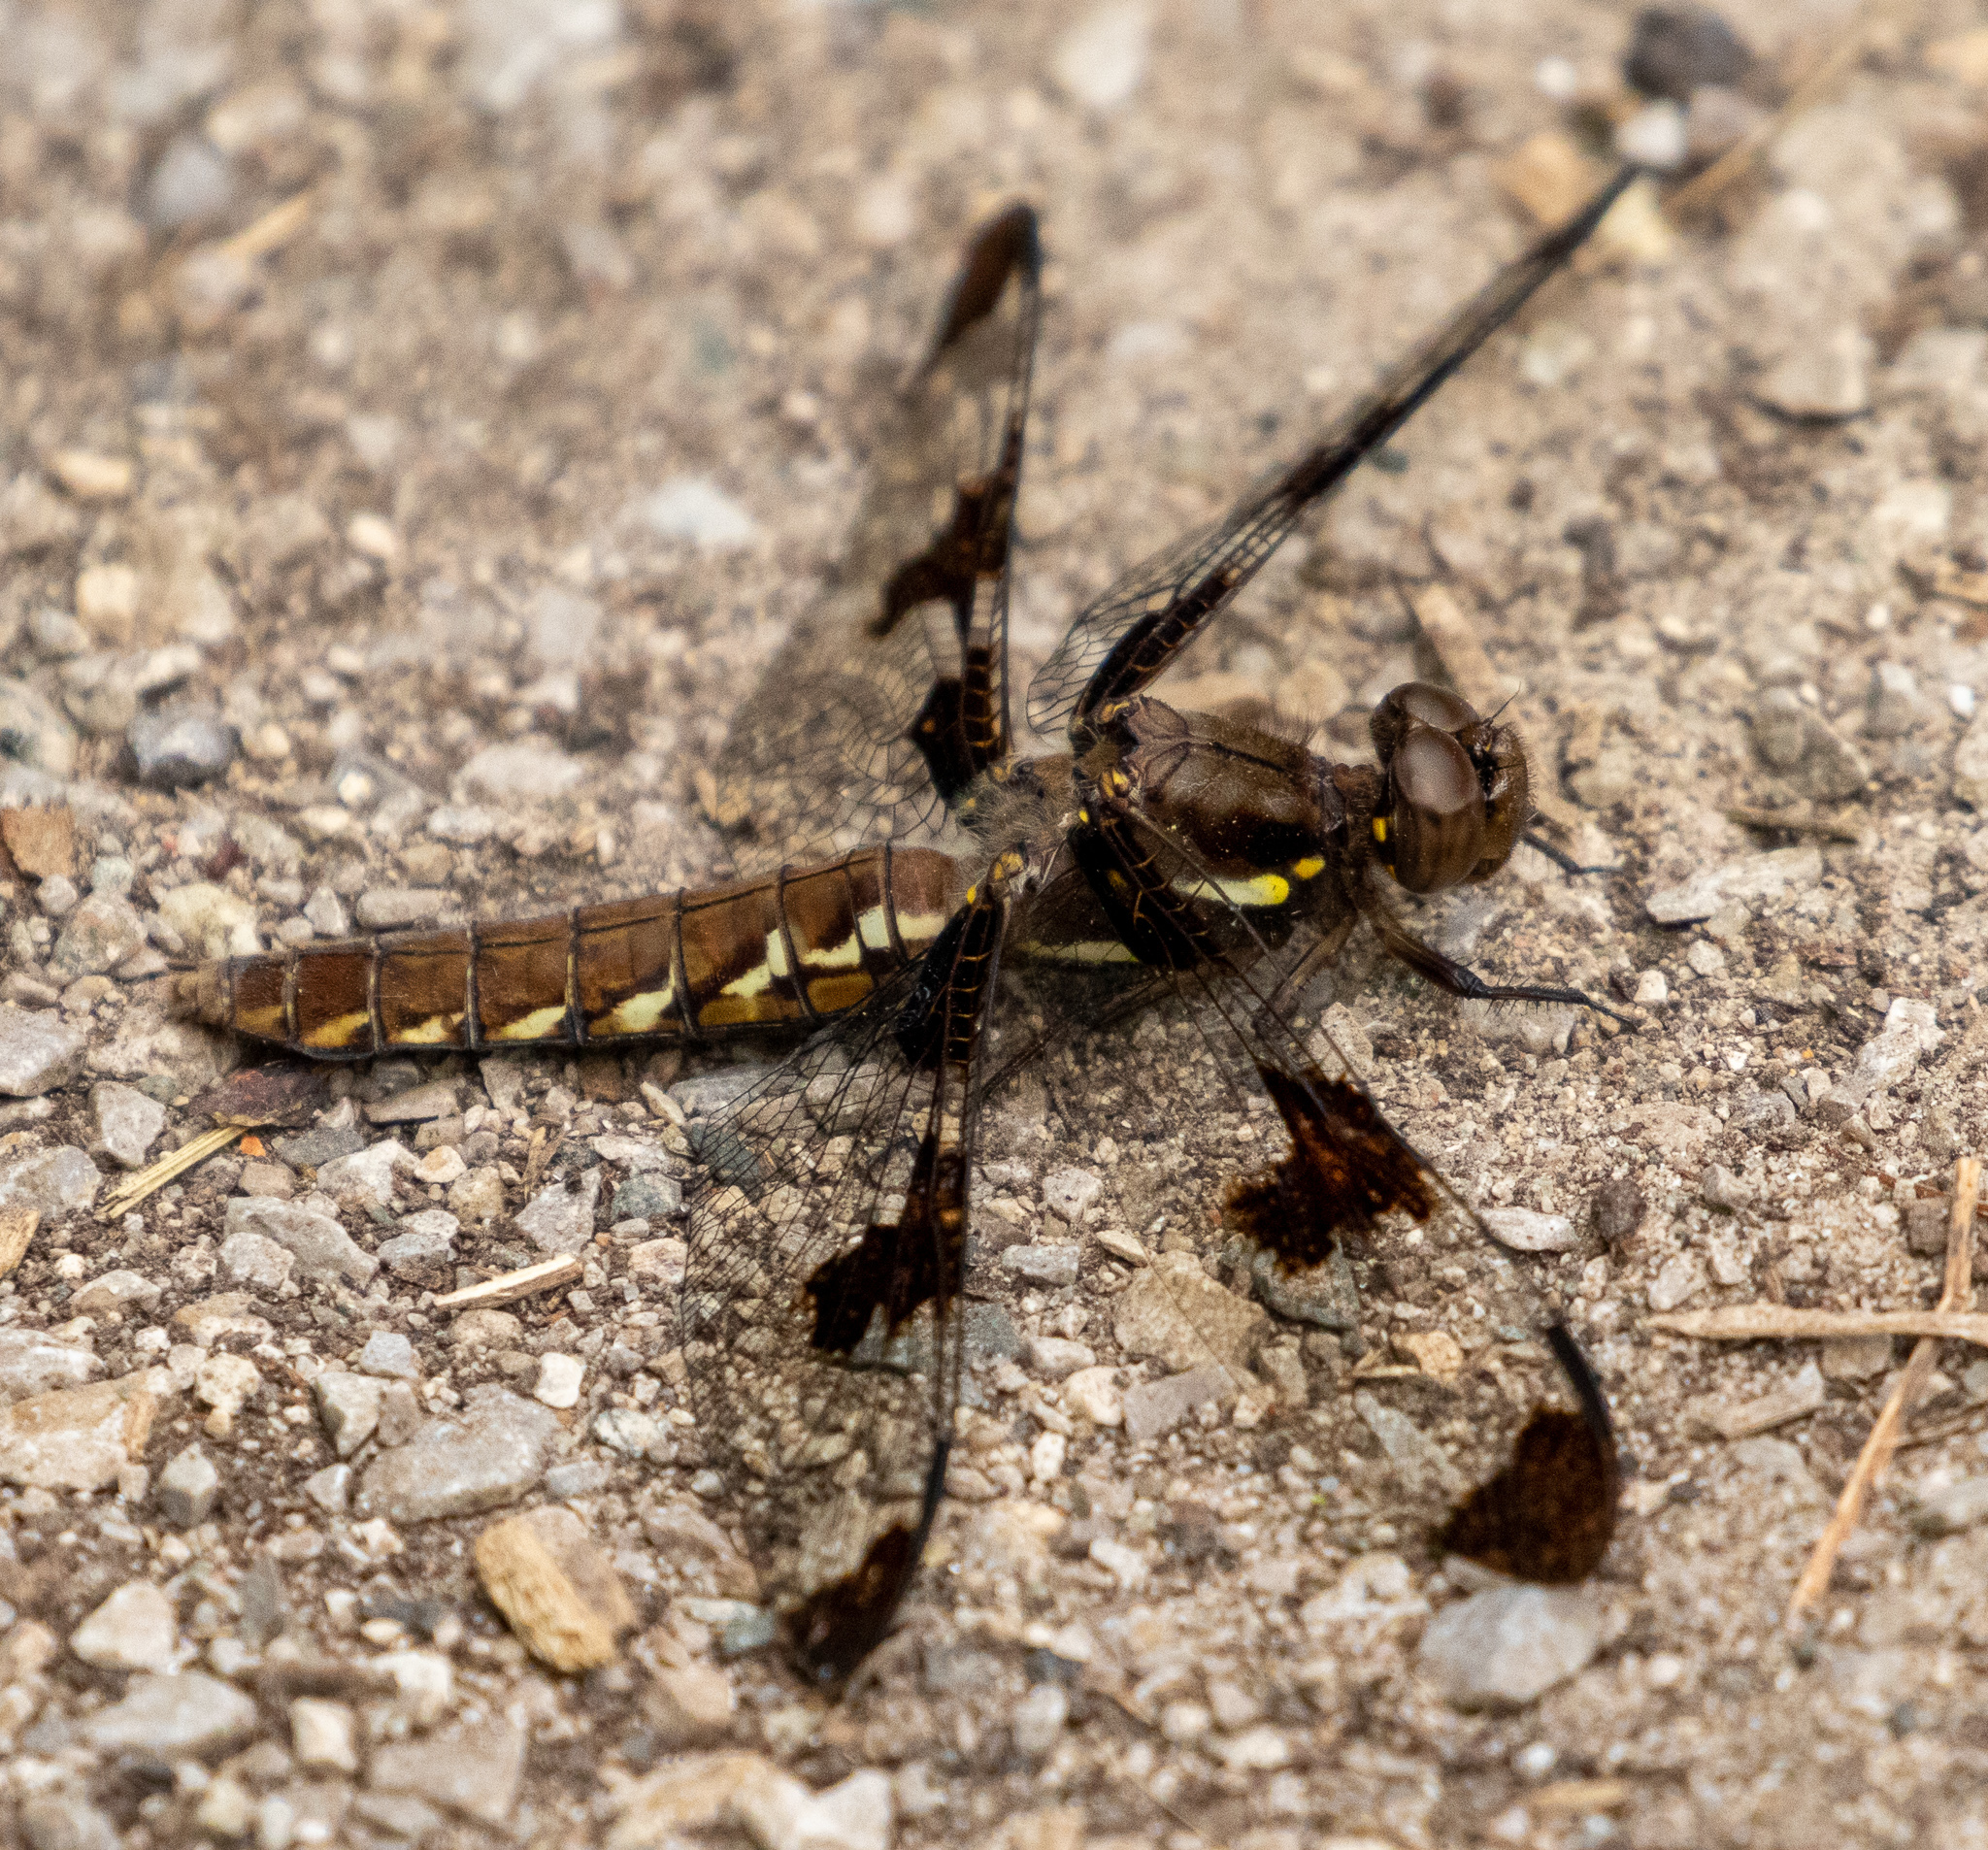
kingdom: Animalia
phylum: Arthropoda
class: Insecta
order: Odonata
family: Libellulidae
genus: Plathemis
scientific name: Plathemis lydia
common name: Common whitetail
